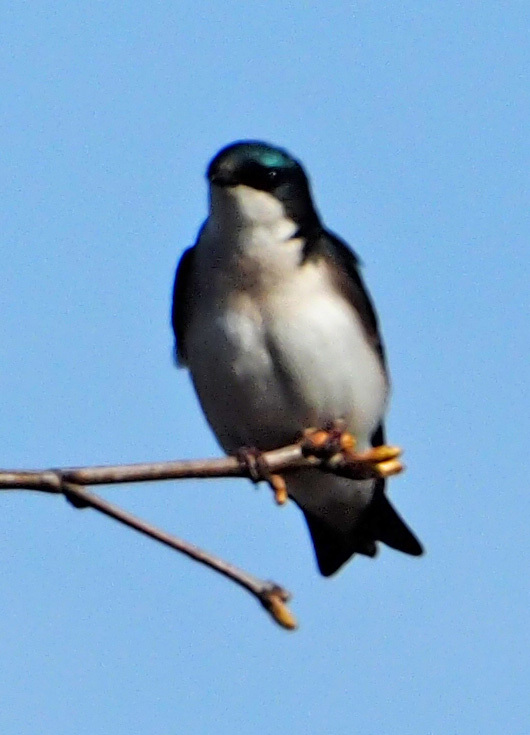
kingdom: Animalia
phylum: Chordata
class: Aves
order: Passeriformes
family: Hirundinidae
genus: Tachycineta
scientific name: Tachycineta bicolor
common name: Tree swallow
